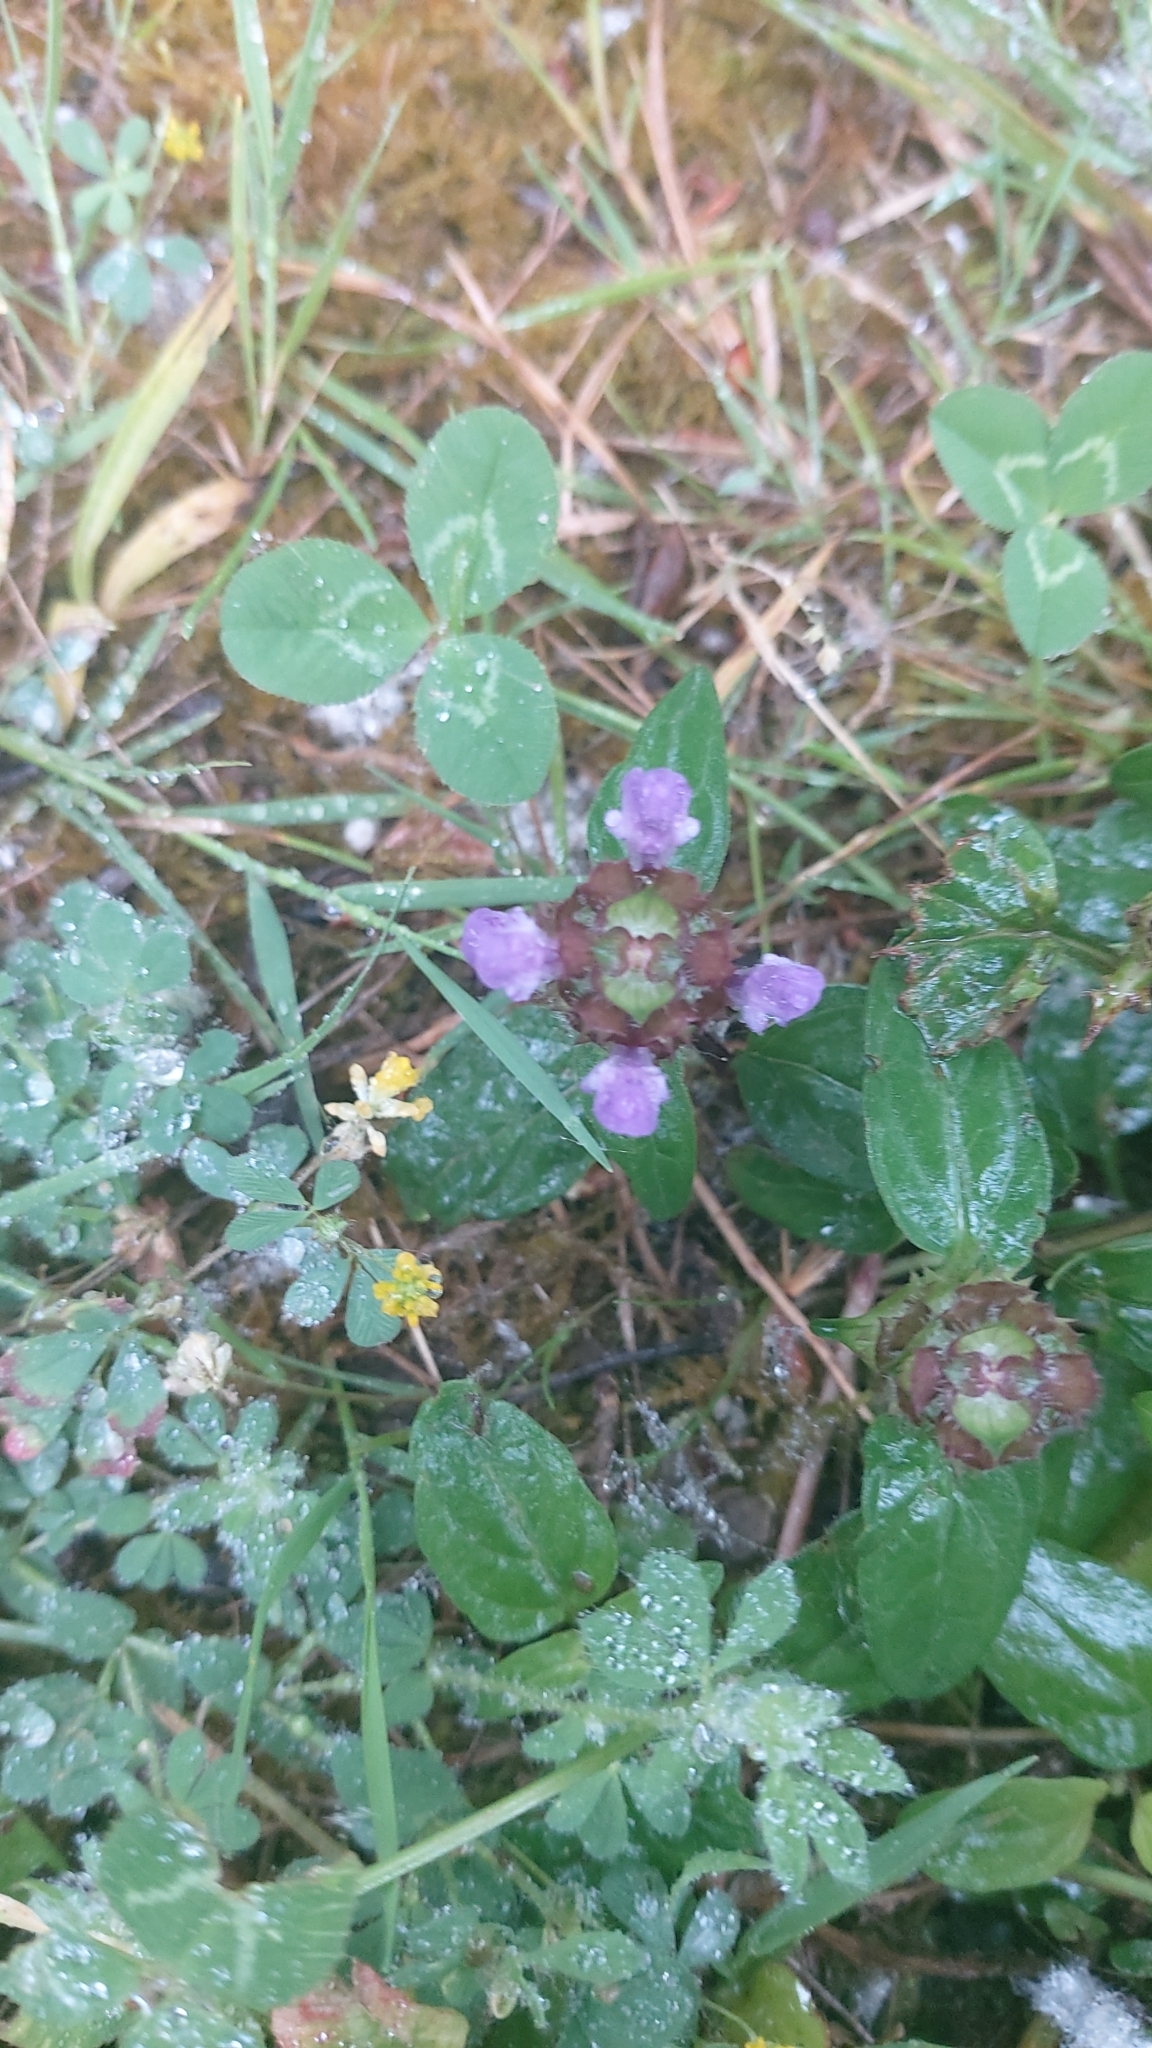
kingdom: Plantae
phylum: Tracheophyta
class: Magnoliopsida
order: Lamiales
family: Lamiaceae
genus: Prunella
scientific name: Prunella vulgaris
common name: Heal-all
